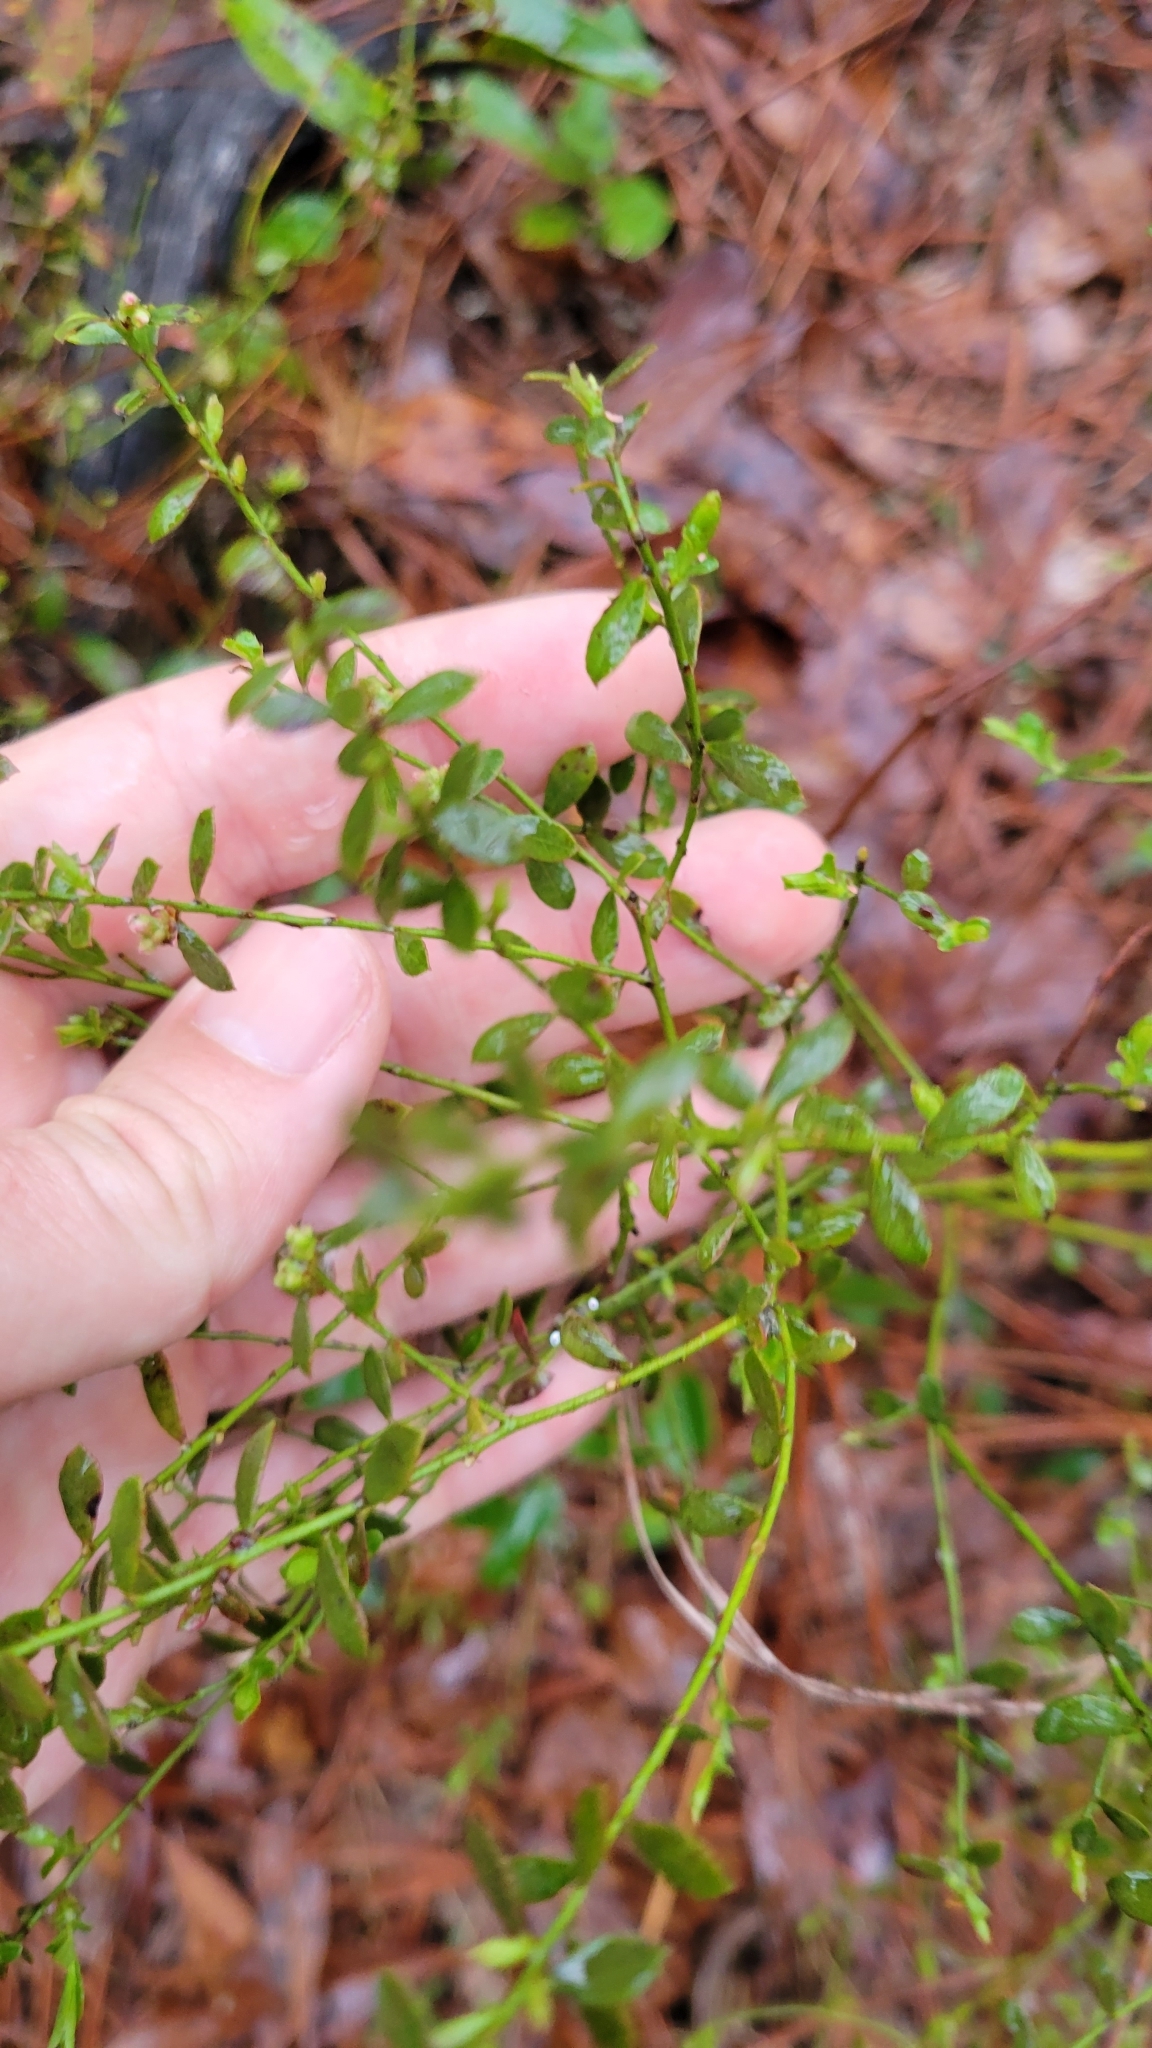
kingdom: Plantae
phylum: Tracheophyta
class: Magnoliopsida
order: Ericales
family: Ericaceae
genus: Vaccinium
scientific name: Vaccinium myrsinites
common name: Evergreen blueberry
